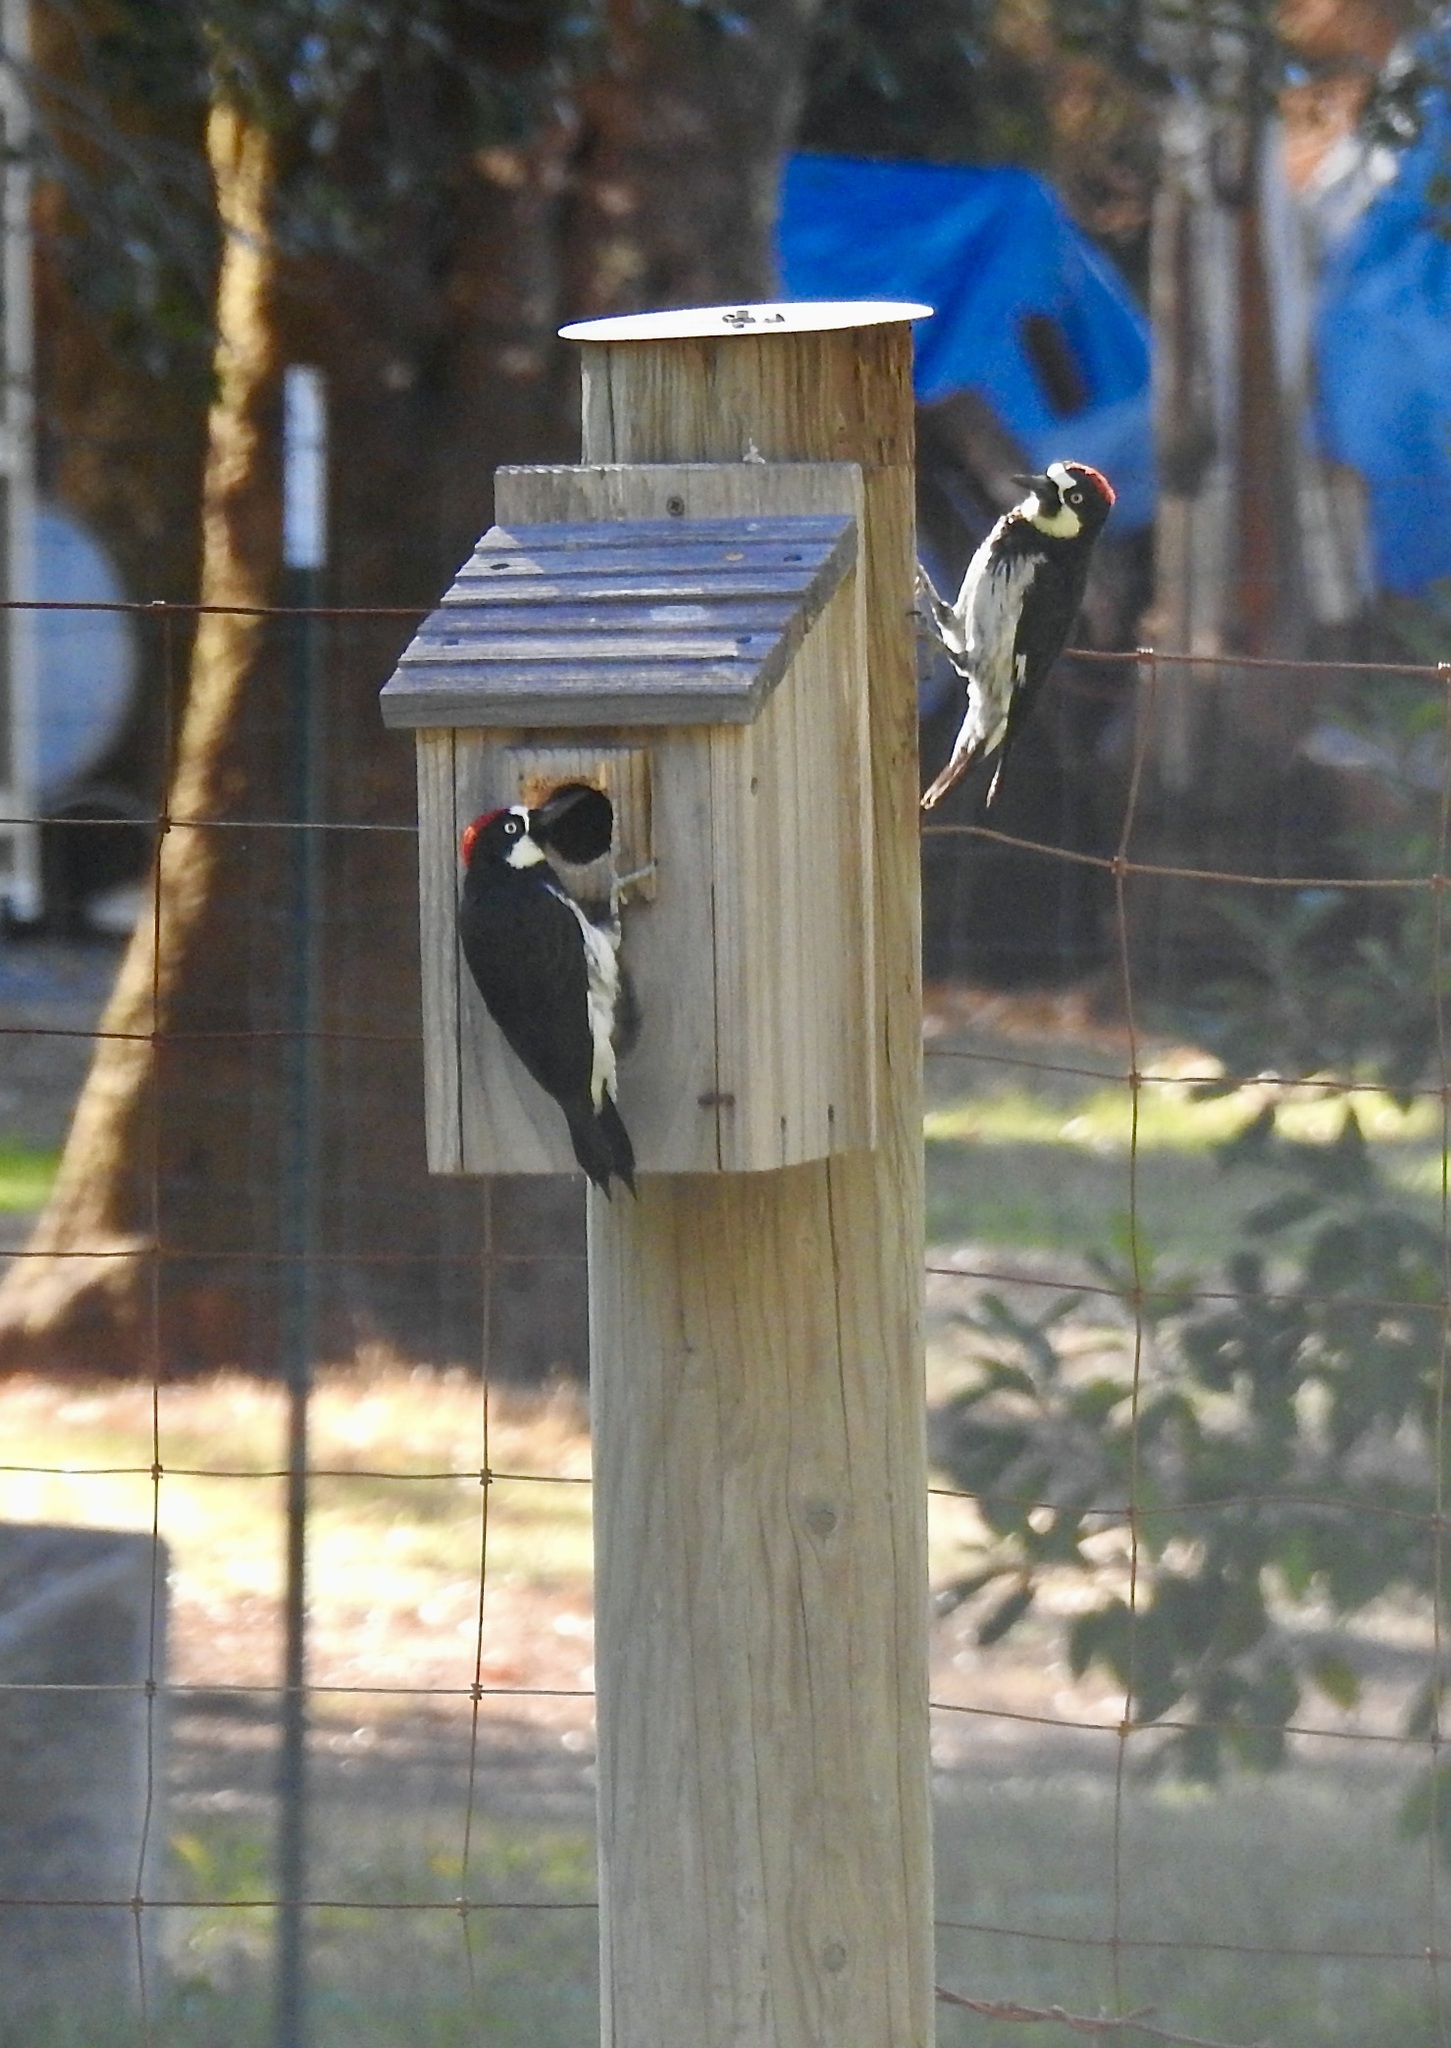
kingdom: Animalia
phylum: Chordata
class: Aves
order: Piciformes
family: Picidae
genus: Melanerpes
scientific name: Melanerpes formicivorus
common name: Acorn woodpecker
